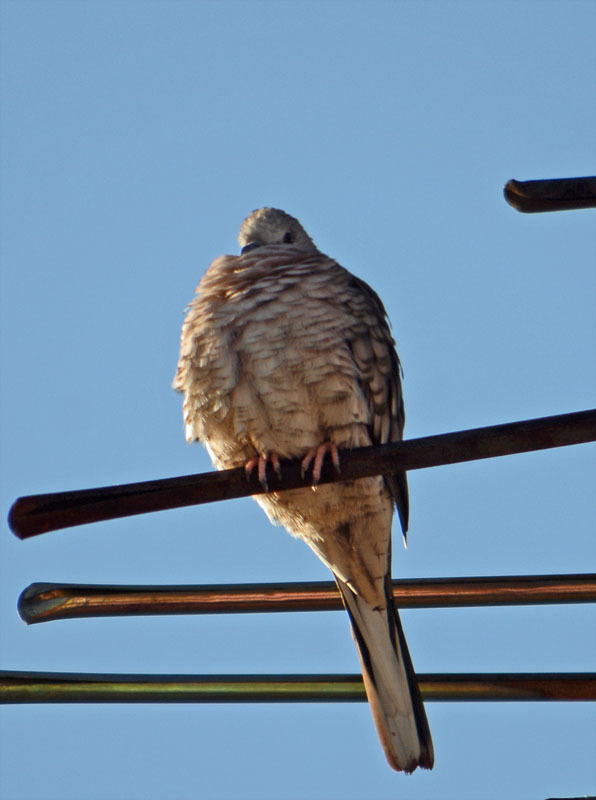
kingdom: Animalia
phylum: Chordata
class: Aves
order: Columbiformes
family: Columbidae
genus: Columbina
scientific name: Columbina inca
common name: Inca dove
